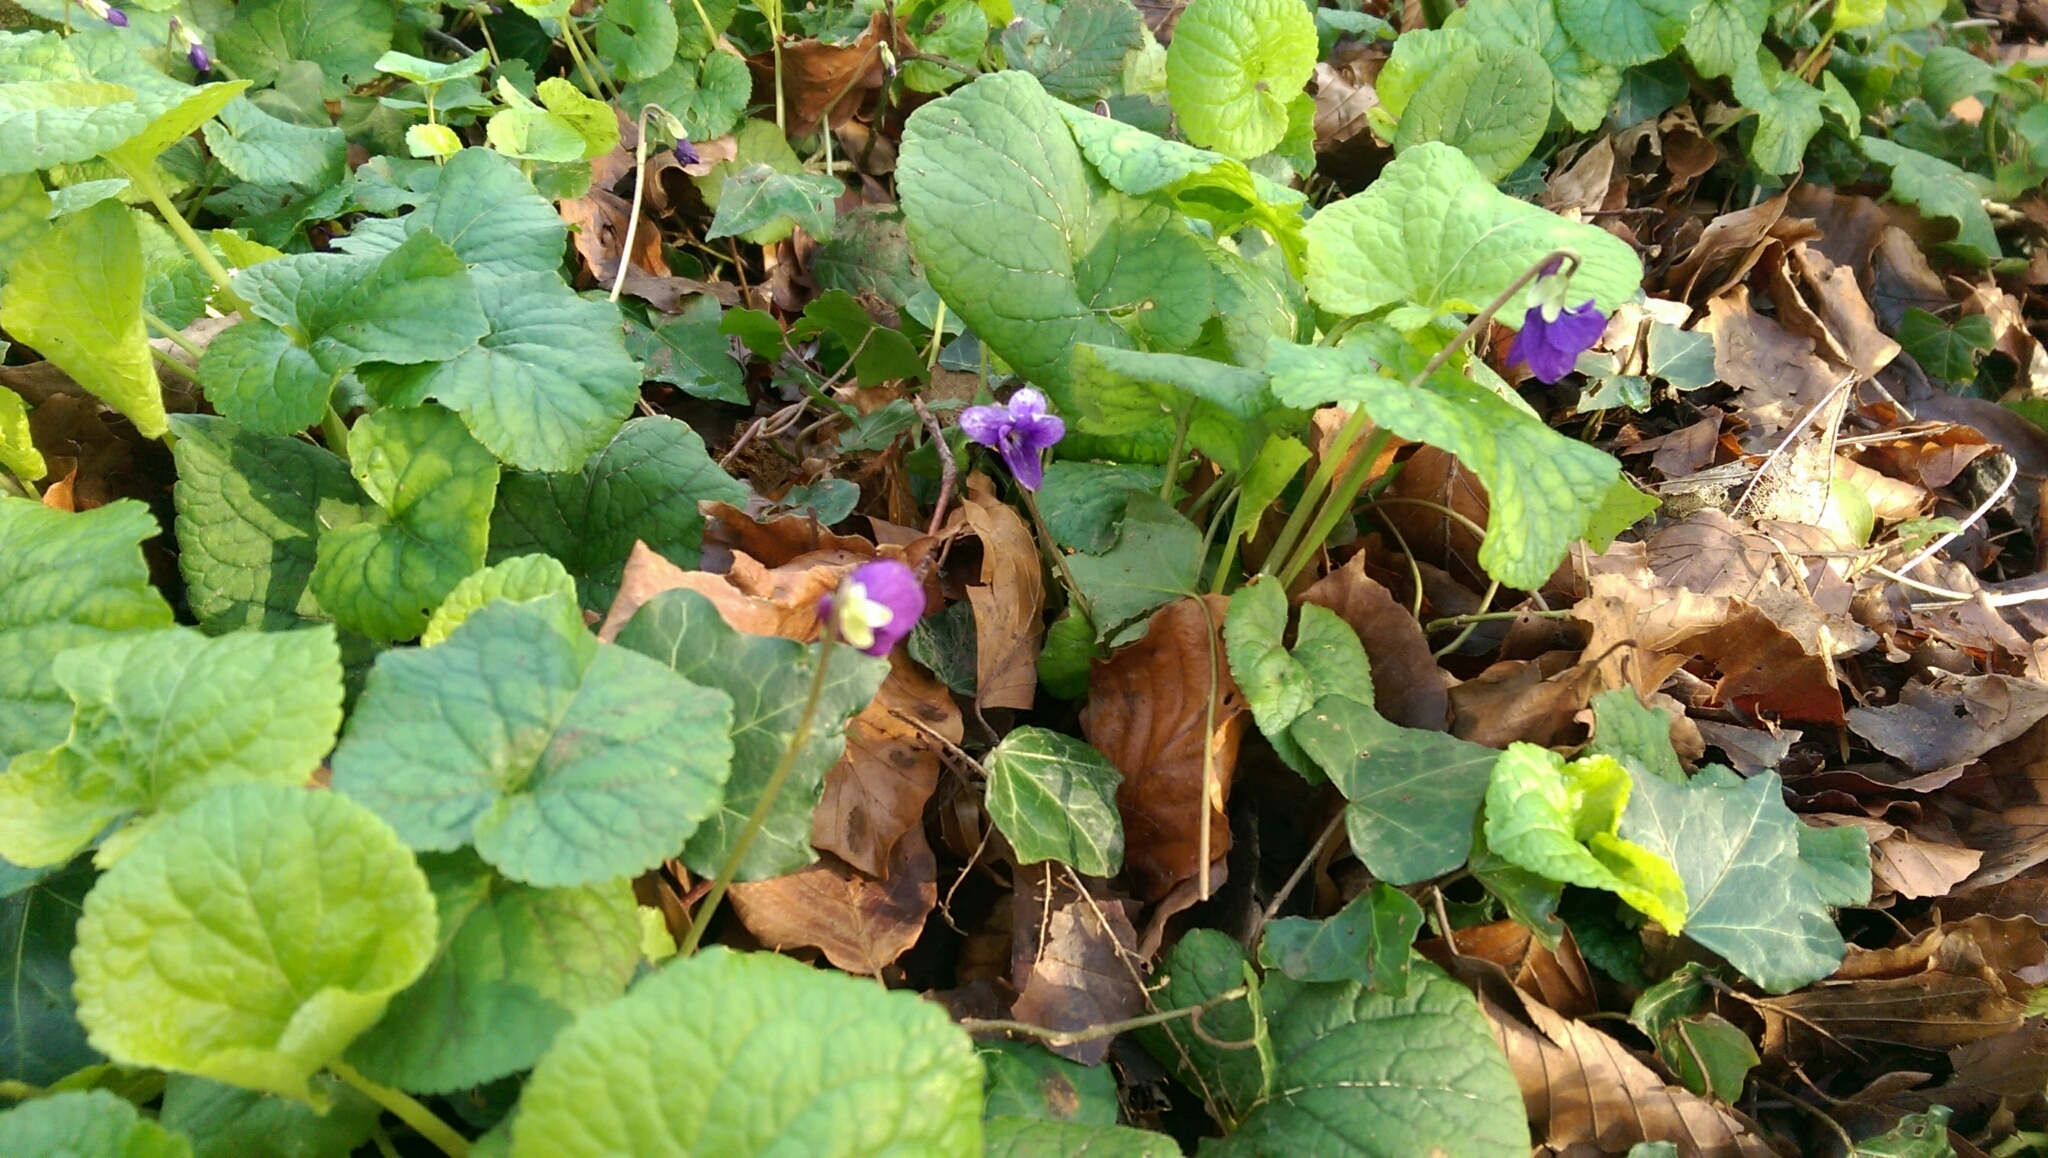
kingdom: Plantae
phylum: Tracheophyta
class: Magnoliopsida
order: Malpighiales
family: Violaceae
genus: Viola
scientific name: Viola odorata
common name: Sweet violet
